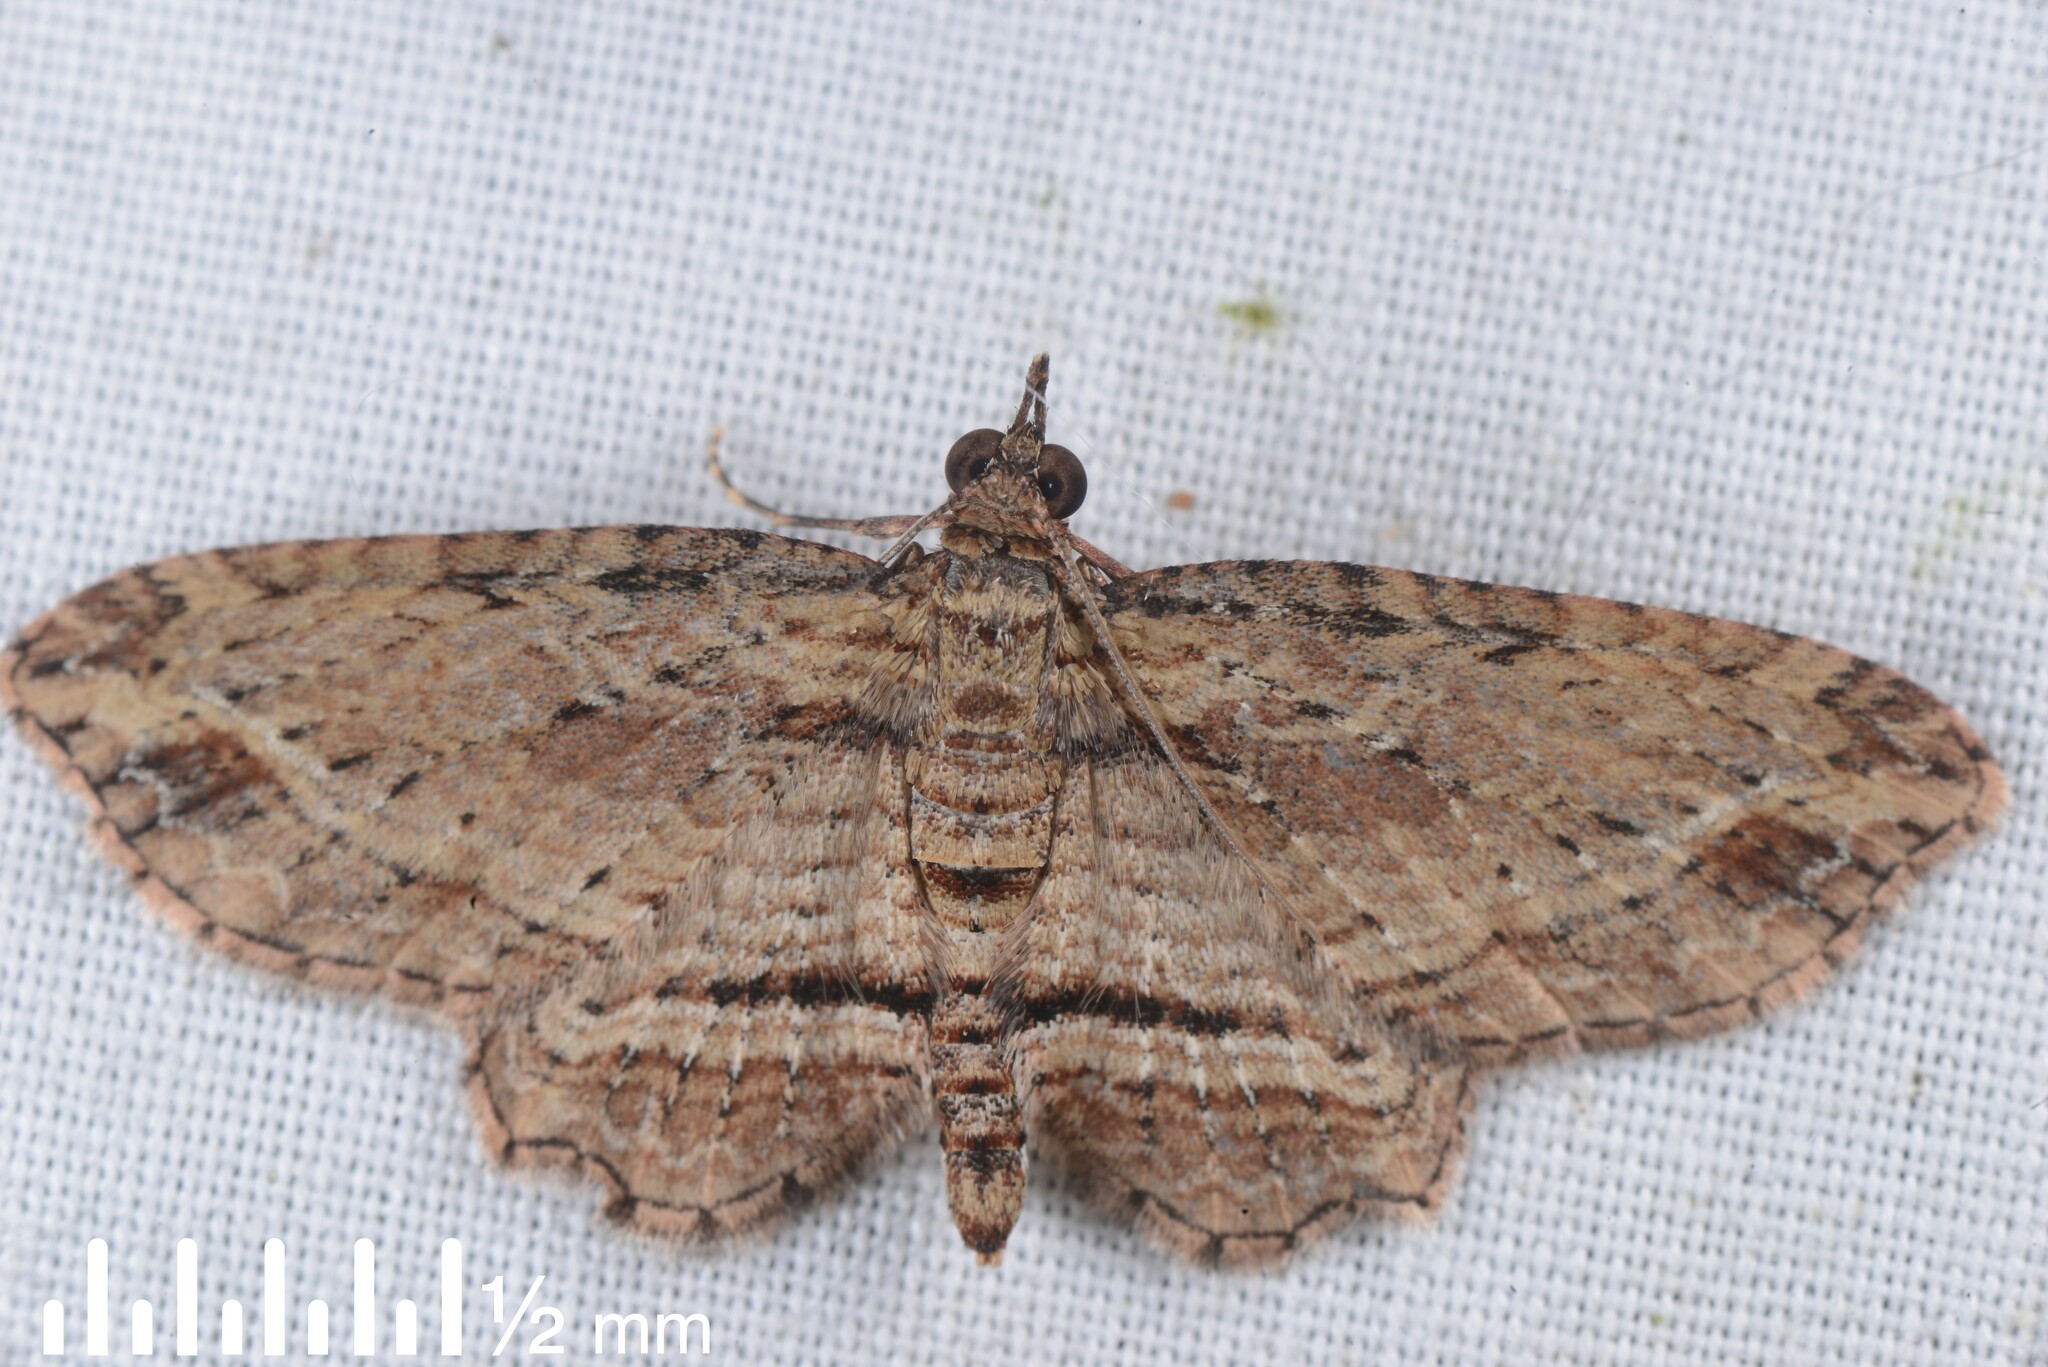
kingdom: Animalia
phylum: Arthropoda
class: Insecta
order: Lepidoptera
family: Geometridae
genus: Chloroclystis
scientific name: Chloroclystis filata
